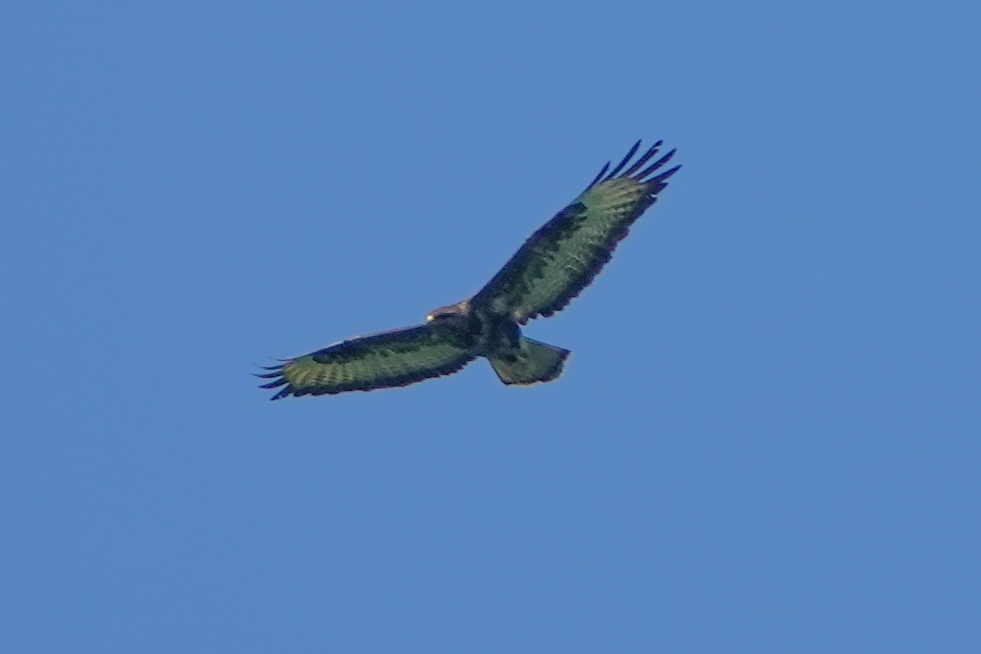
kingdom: Animalia
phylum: Chordata
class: Aves
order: Accipitriformes
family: Accipitridae
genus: Buteo
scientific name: Buteo buteo
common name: Common buzzard
